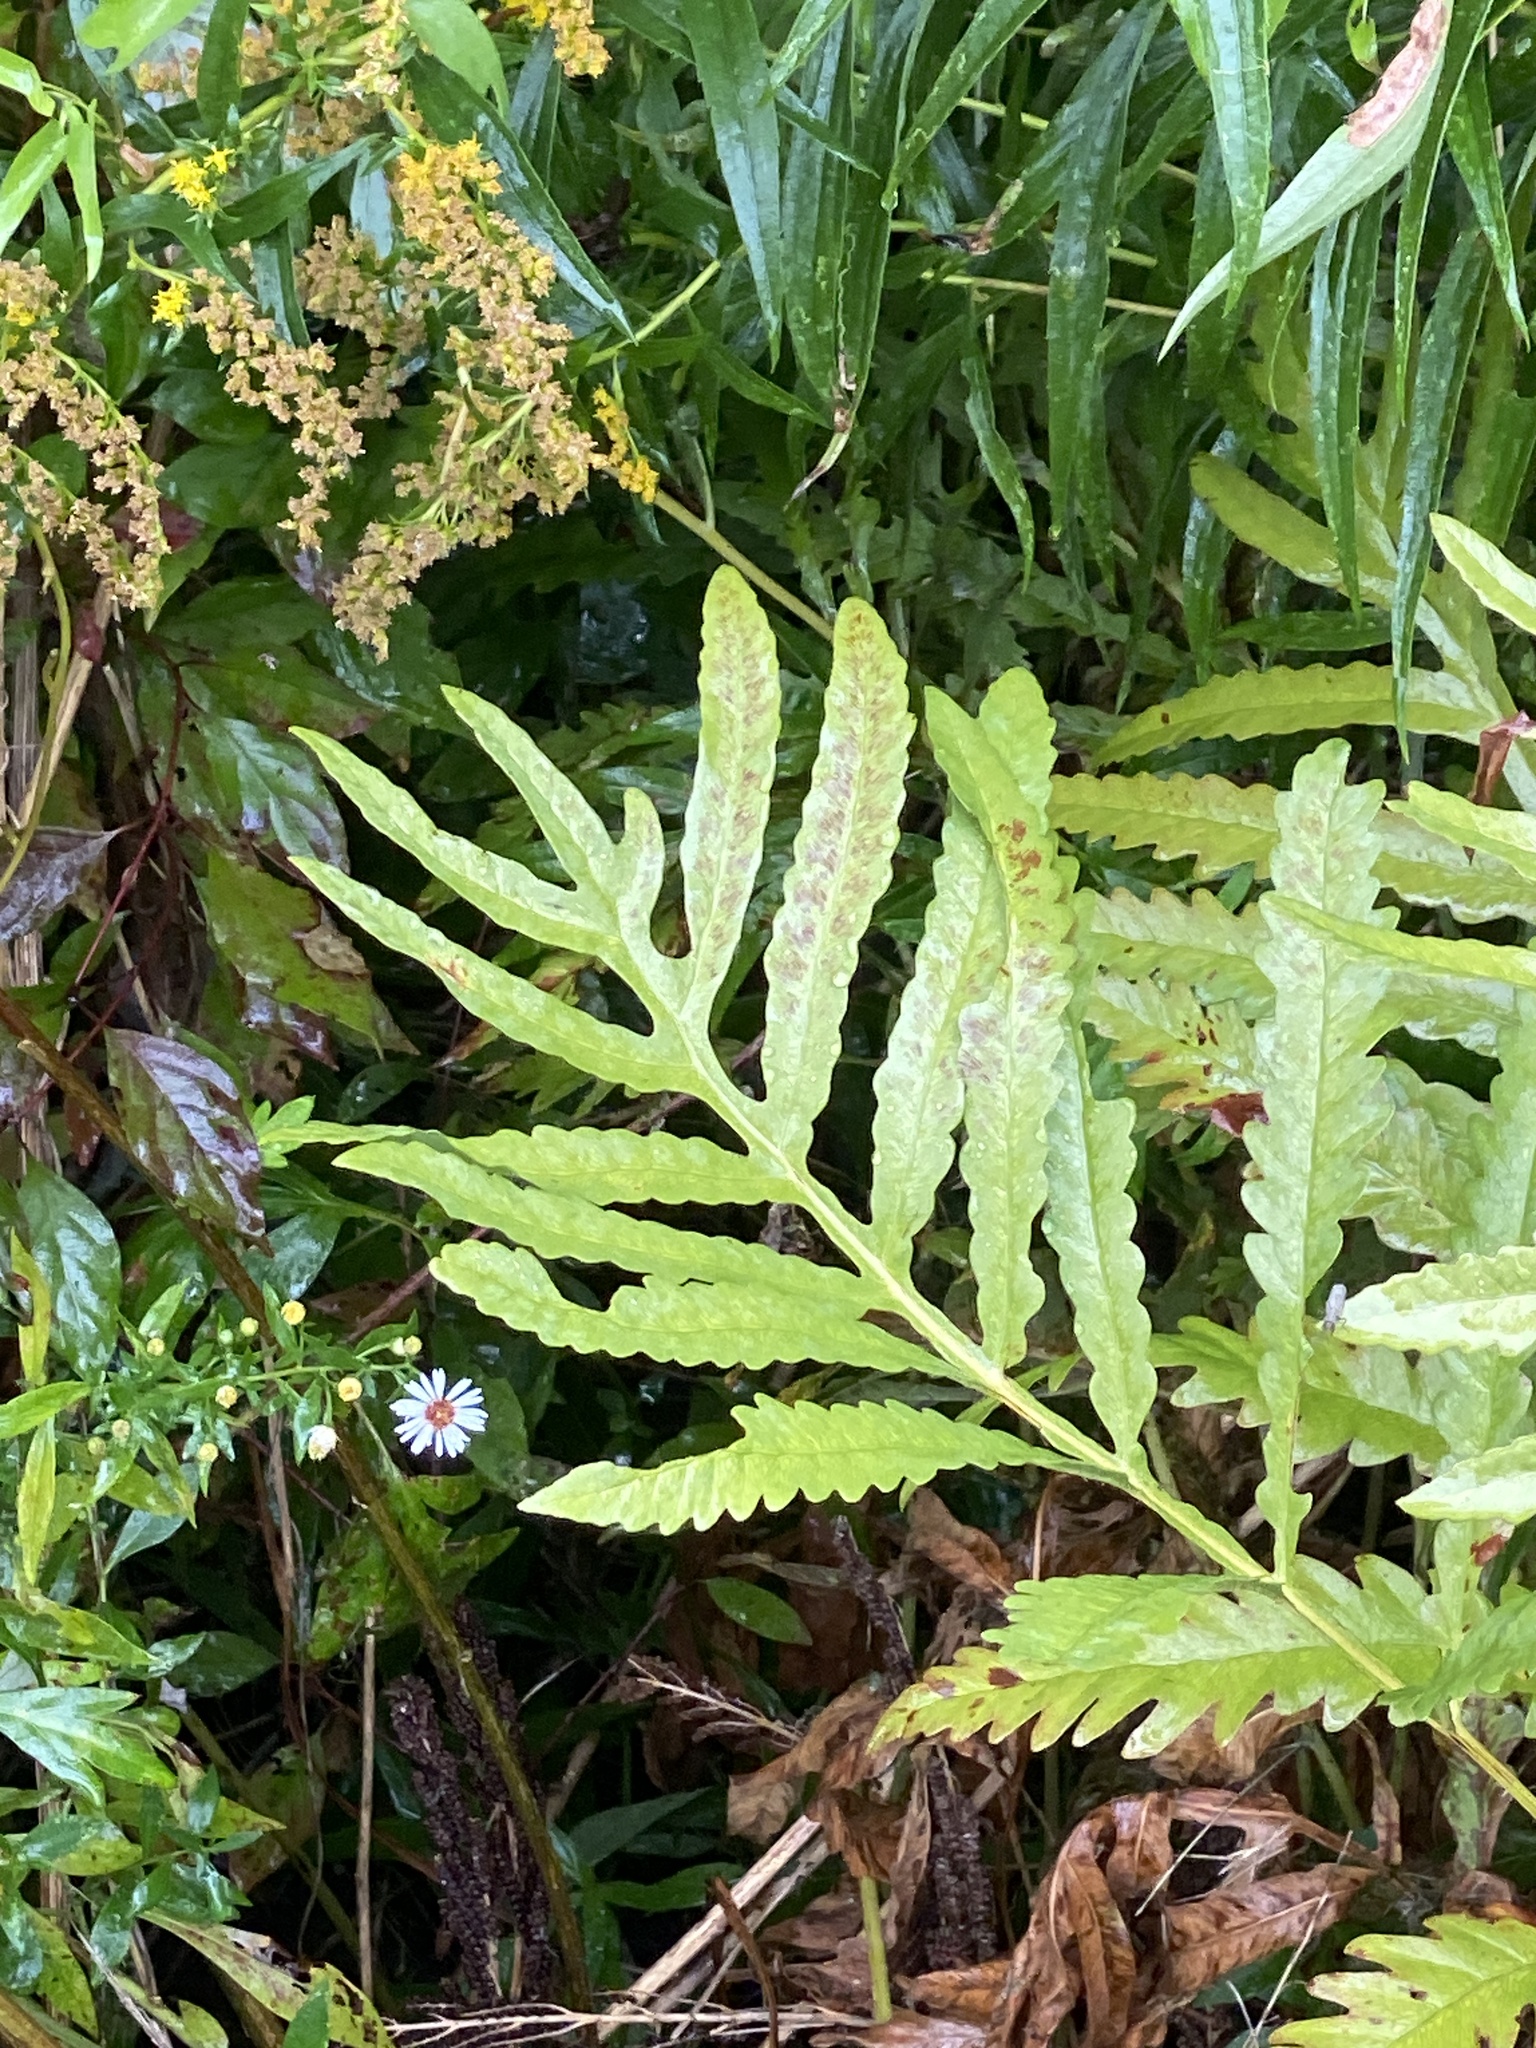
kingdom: Plantae
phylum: Tracheophyta
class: Polypodiopsida
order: Polypodiales
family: Onocleaceae
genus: Onoclea
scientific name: Onoclea sensibilis
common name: Sensitive fern
